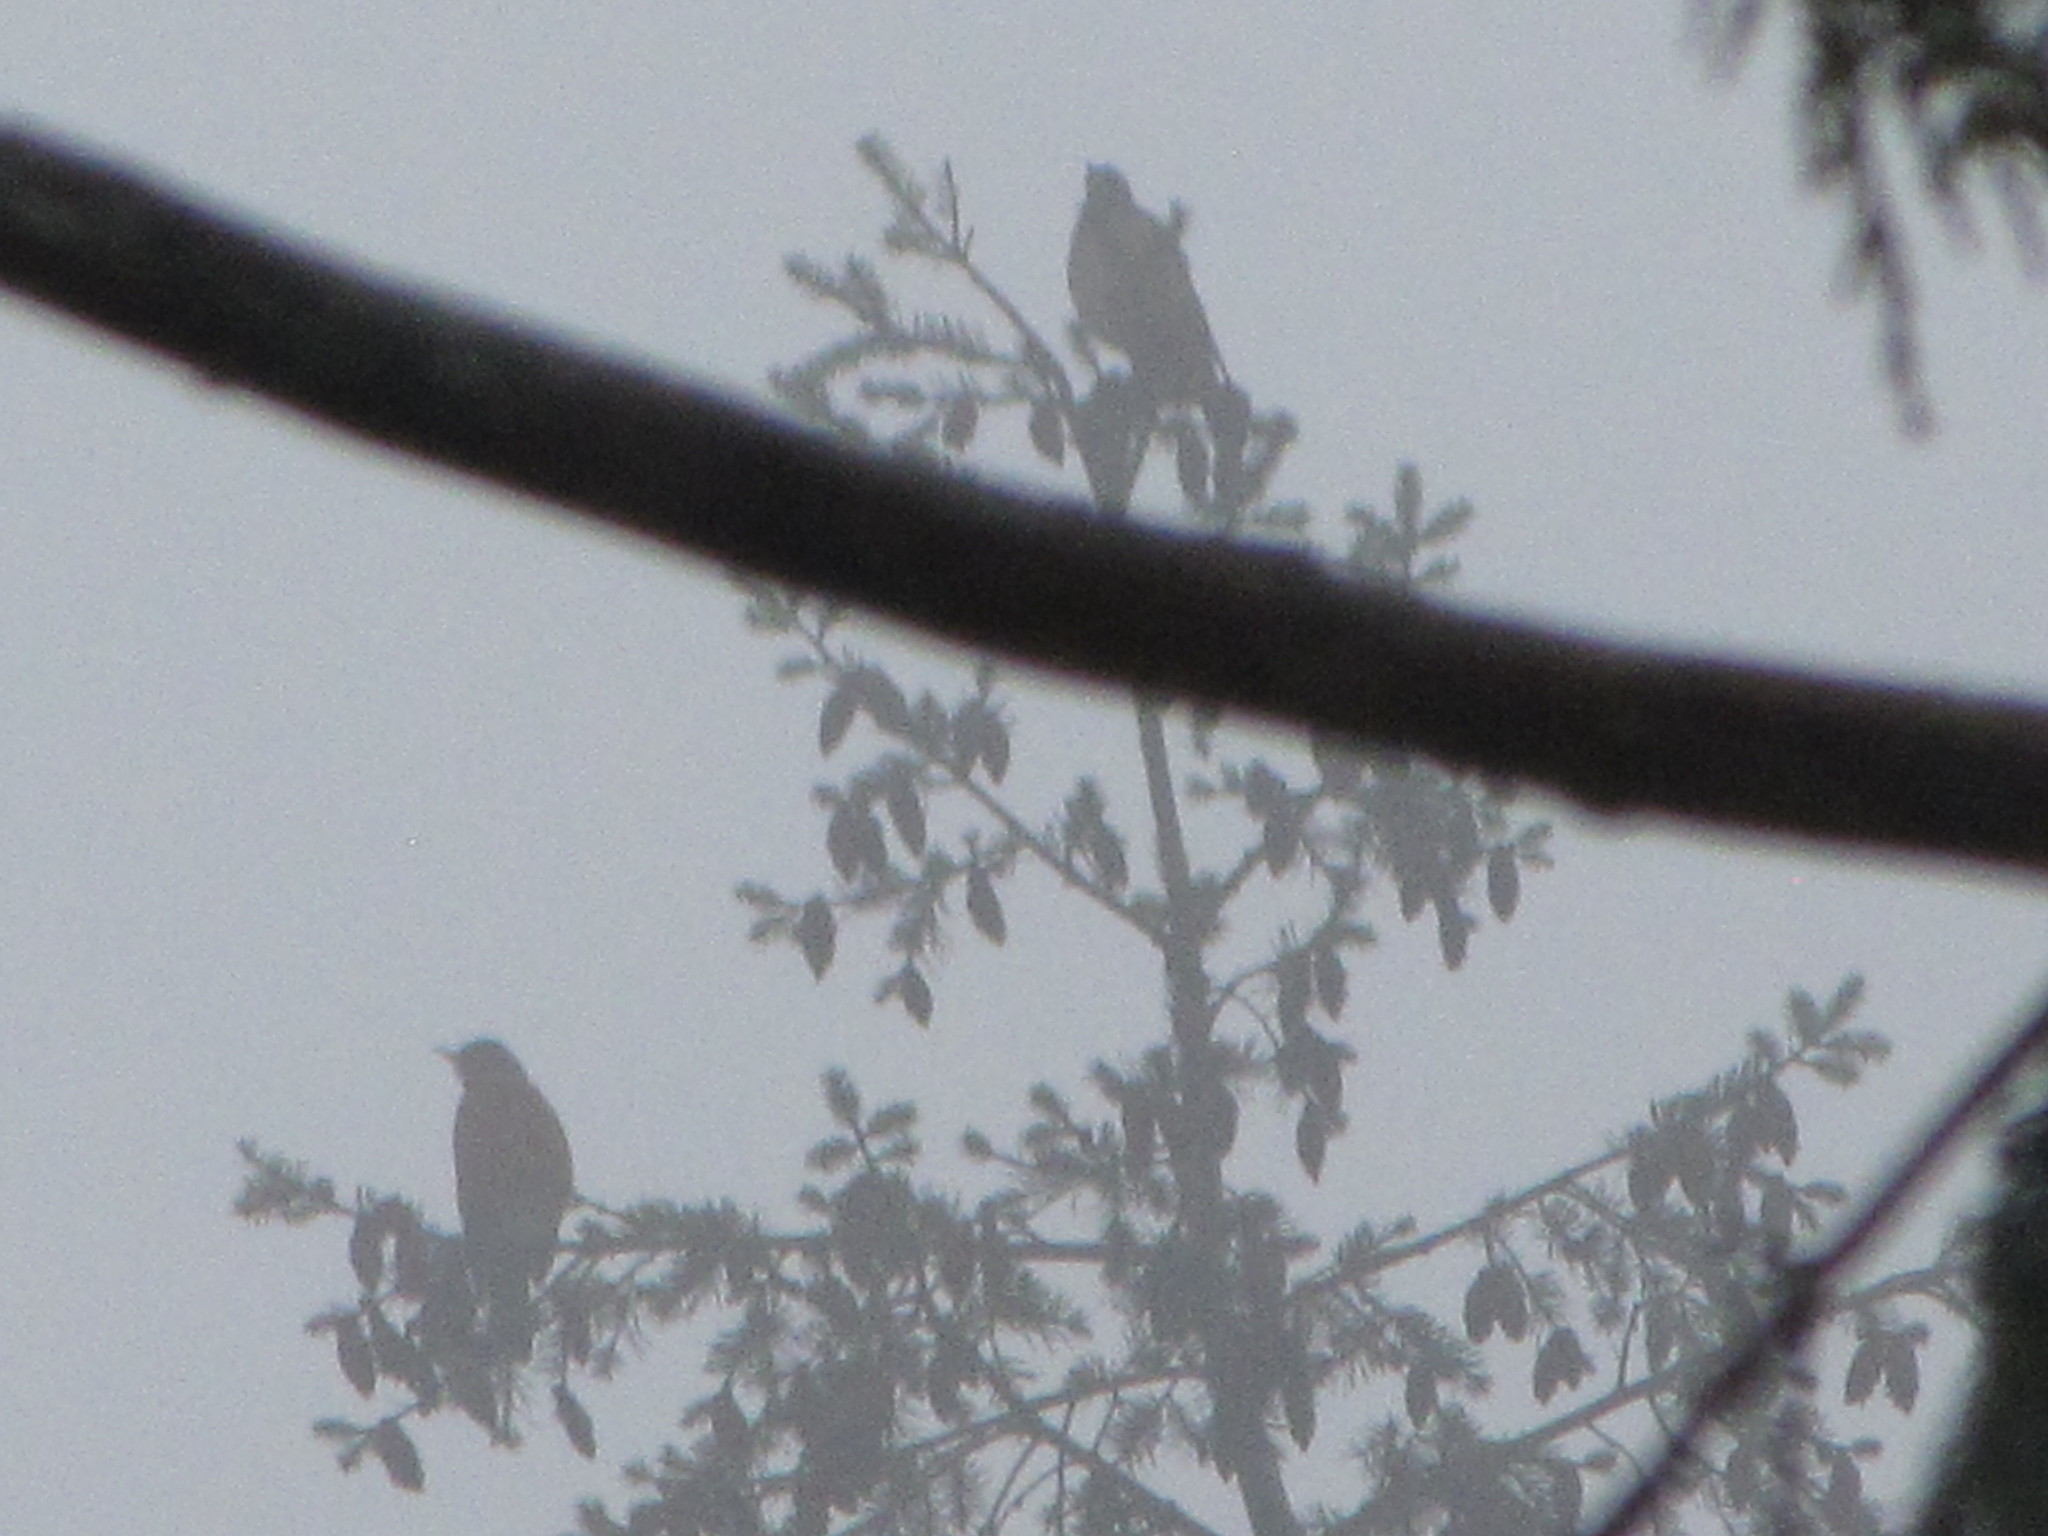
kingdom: Animalia
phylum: Chordata
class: Aves
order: Passeriformes
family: Turdidae
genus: Turdus
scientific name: Turdus migratorius
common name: American robin
